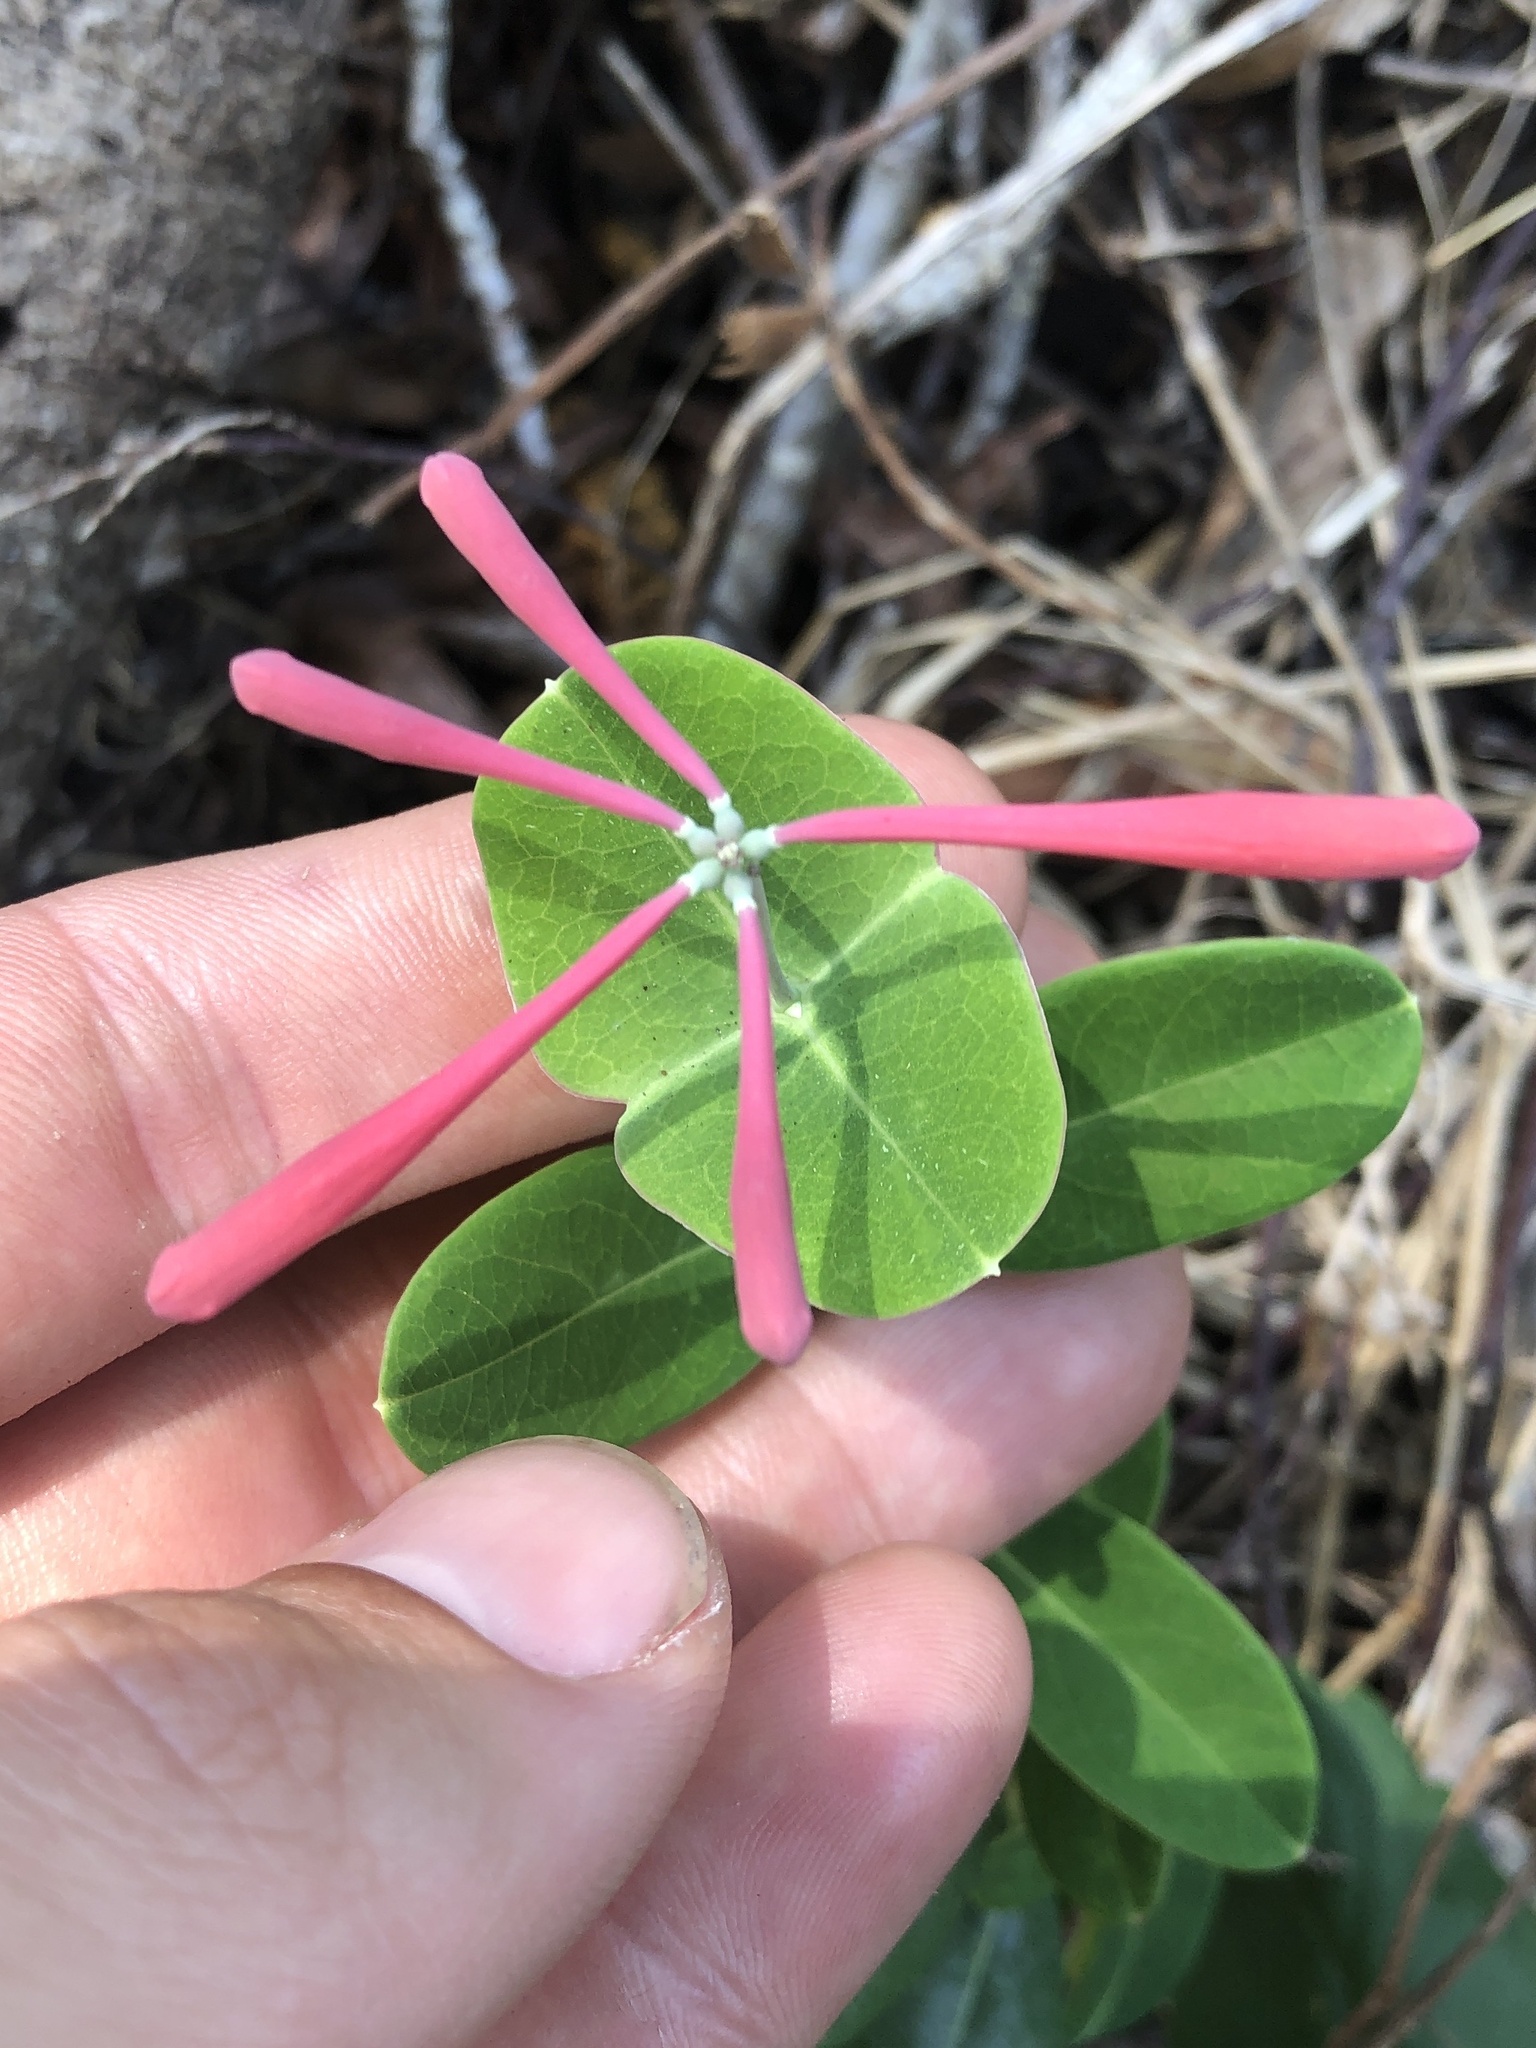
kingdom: Plantae
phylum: Tracheophyta
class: Magnoliopsida
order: Dipsacales
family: Caprifoliaceae
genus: Lonicera
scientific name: Lonicera sempervirens
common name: Coral honeysuckle
